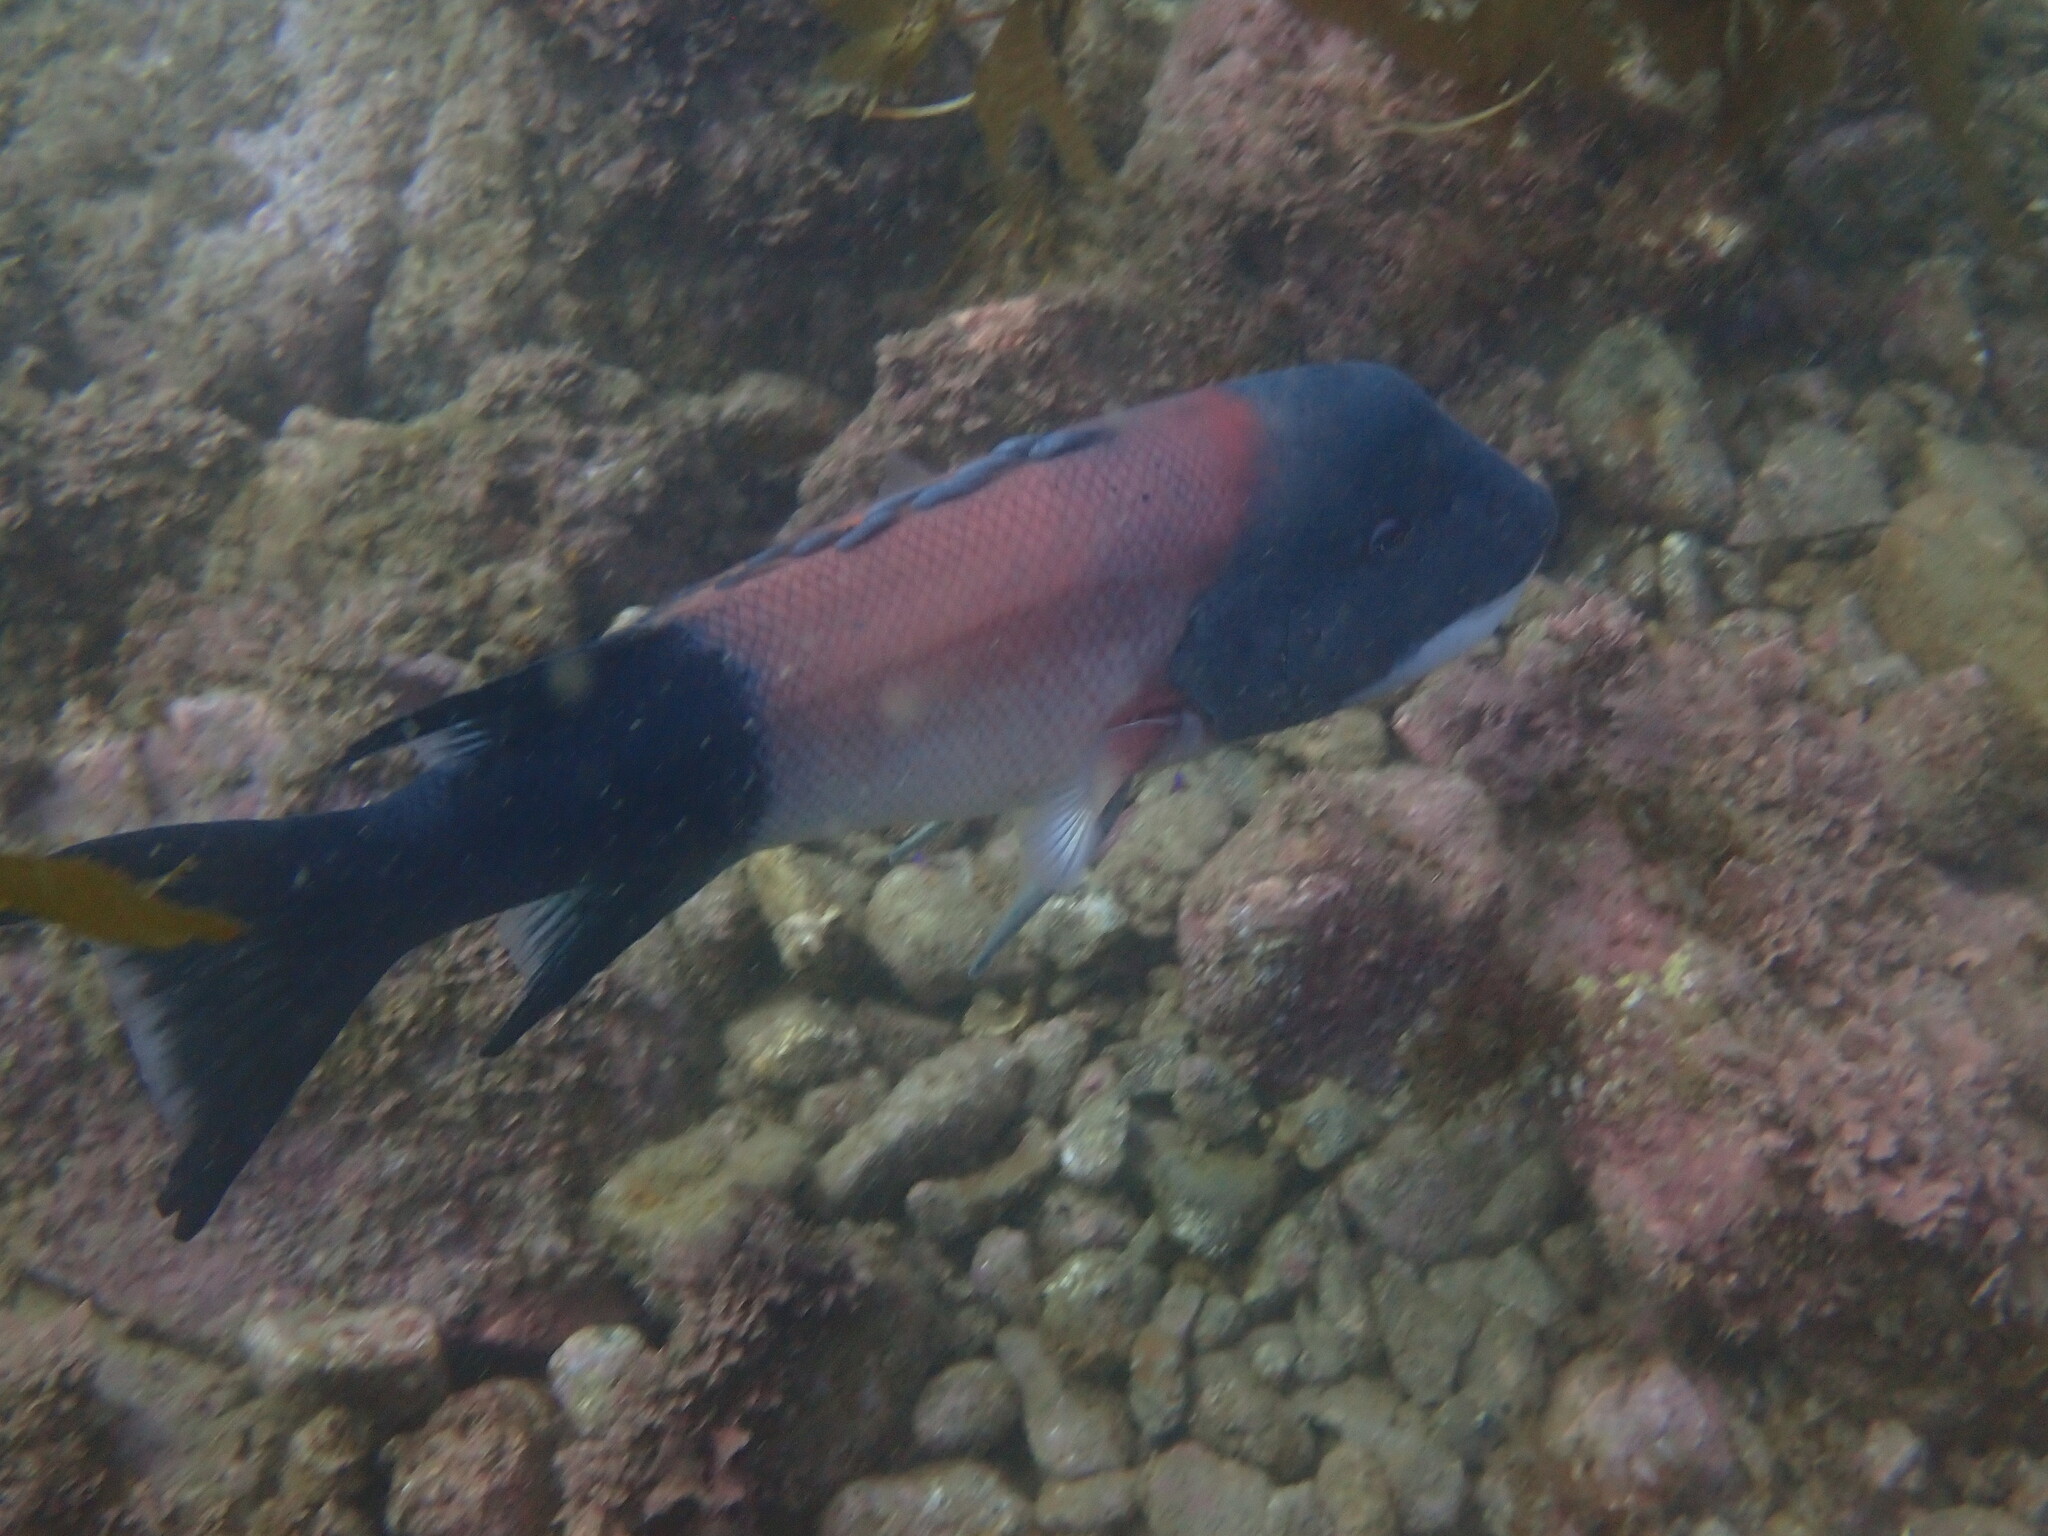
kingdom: Animalia
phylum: Chordata
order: Perciformes
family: Labridae
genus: Semicossyphus
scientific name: Semicossyphus pulcher
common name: California sheephead
